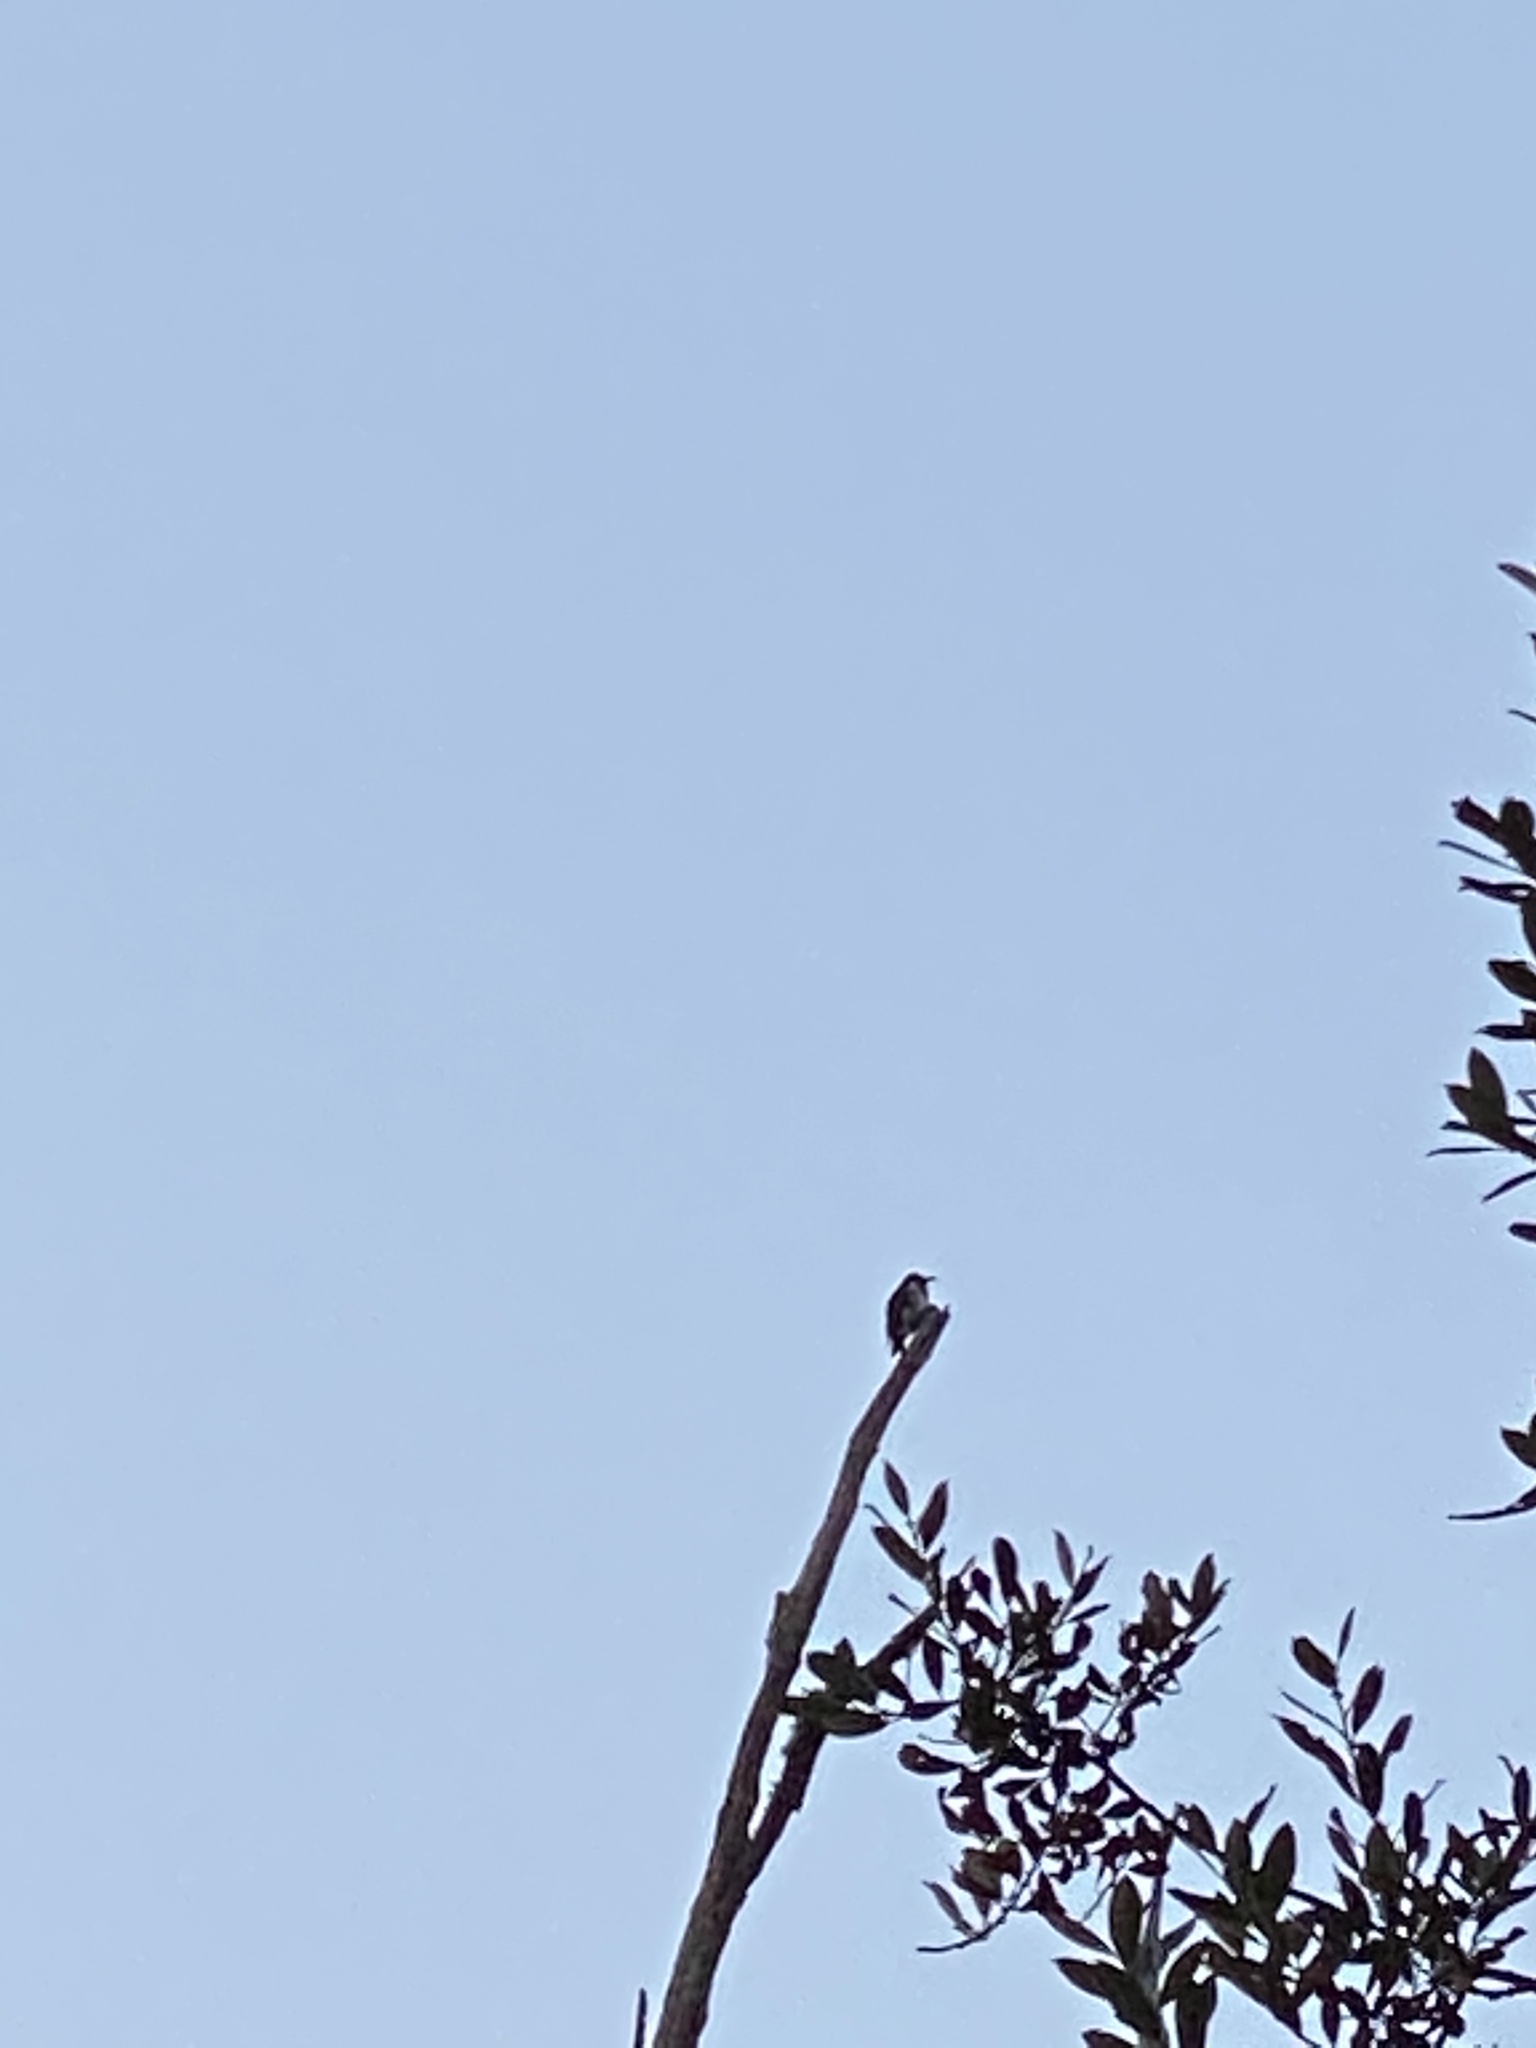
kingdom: Animalia
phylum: Chordata
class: Aves
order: Piciformes
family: Picidae
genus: Melanerpes
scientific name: Melanerpes formicivorus
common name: Acorn woodpecker
